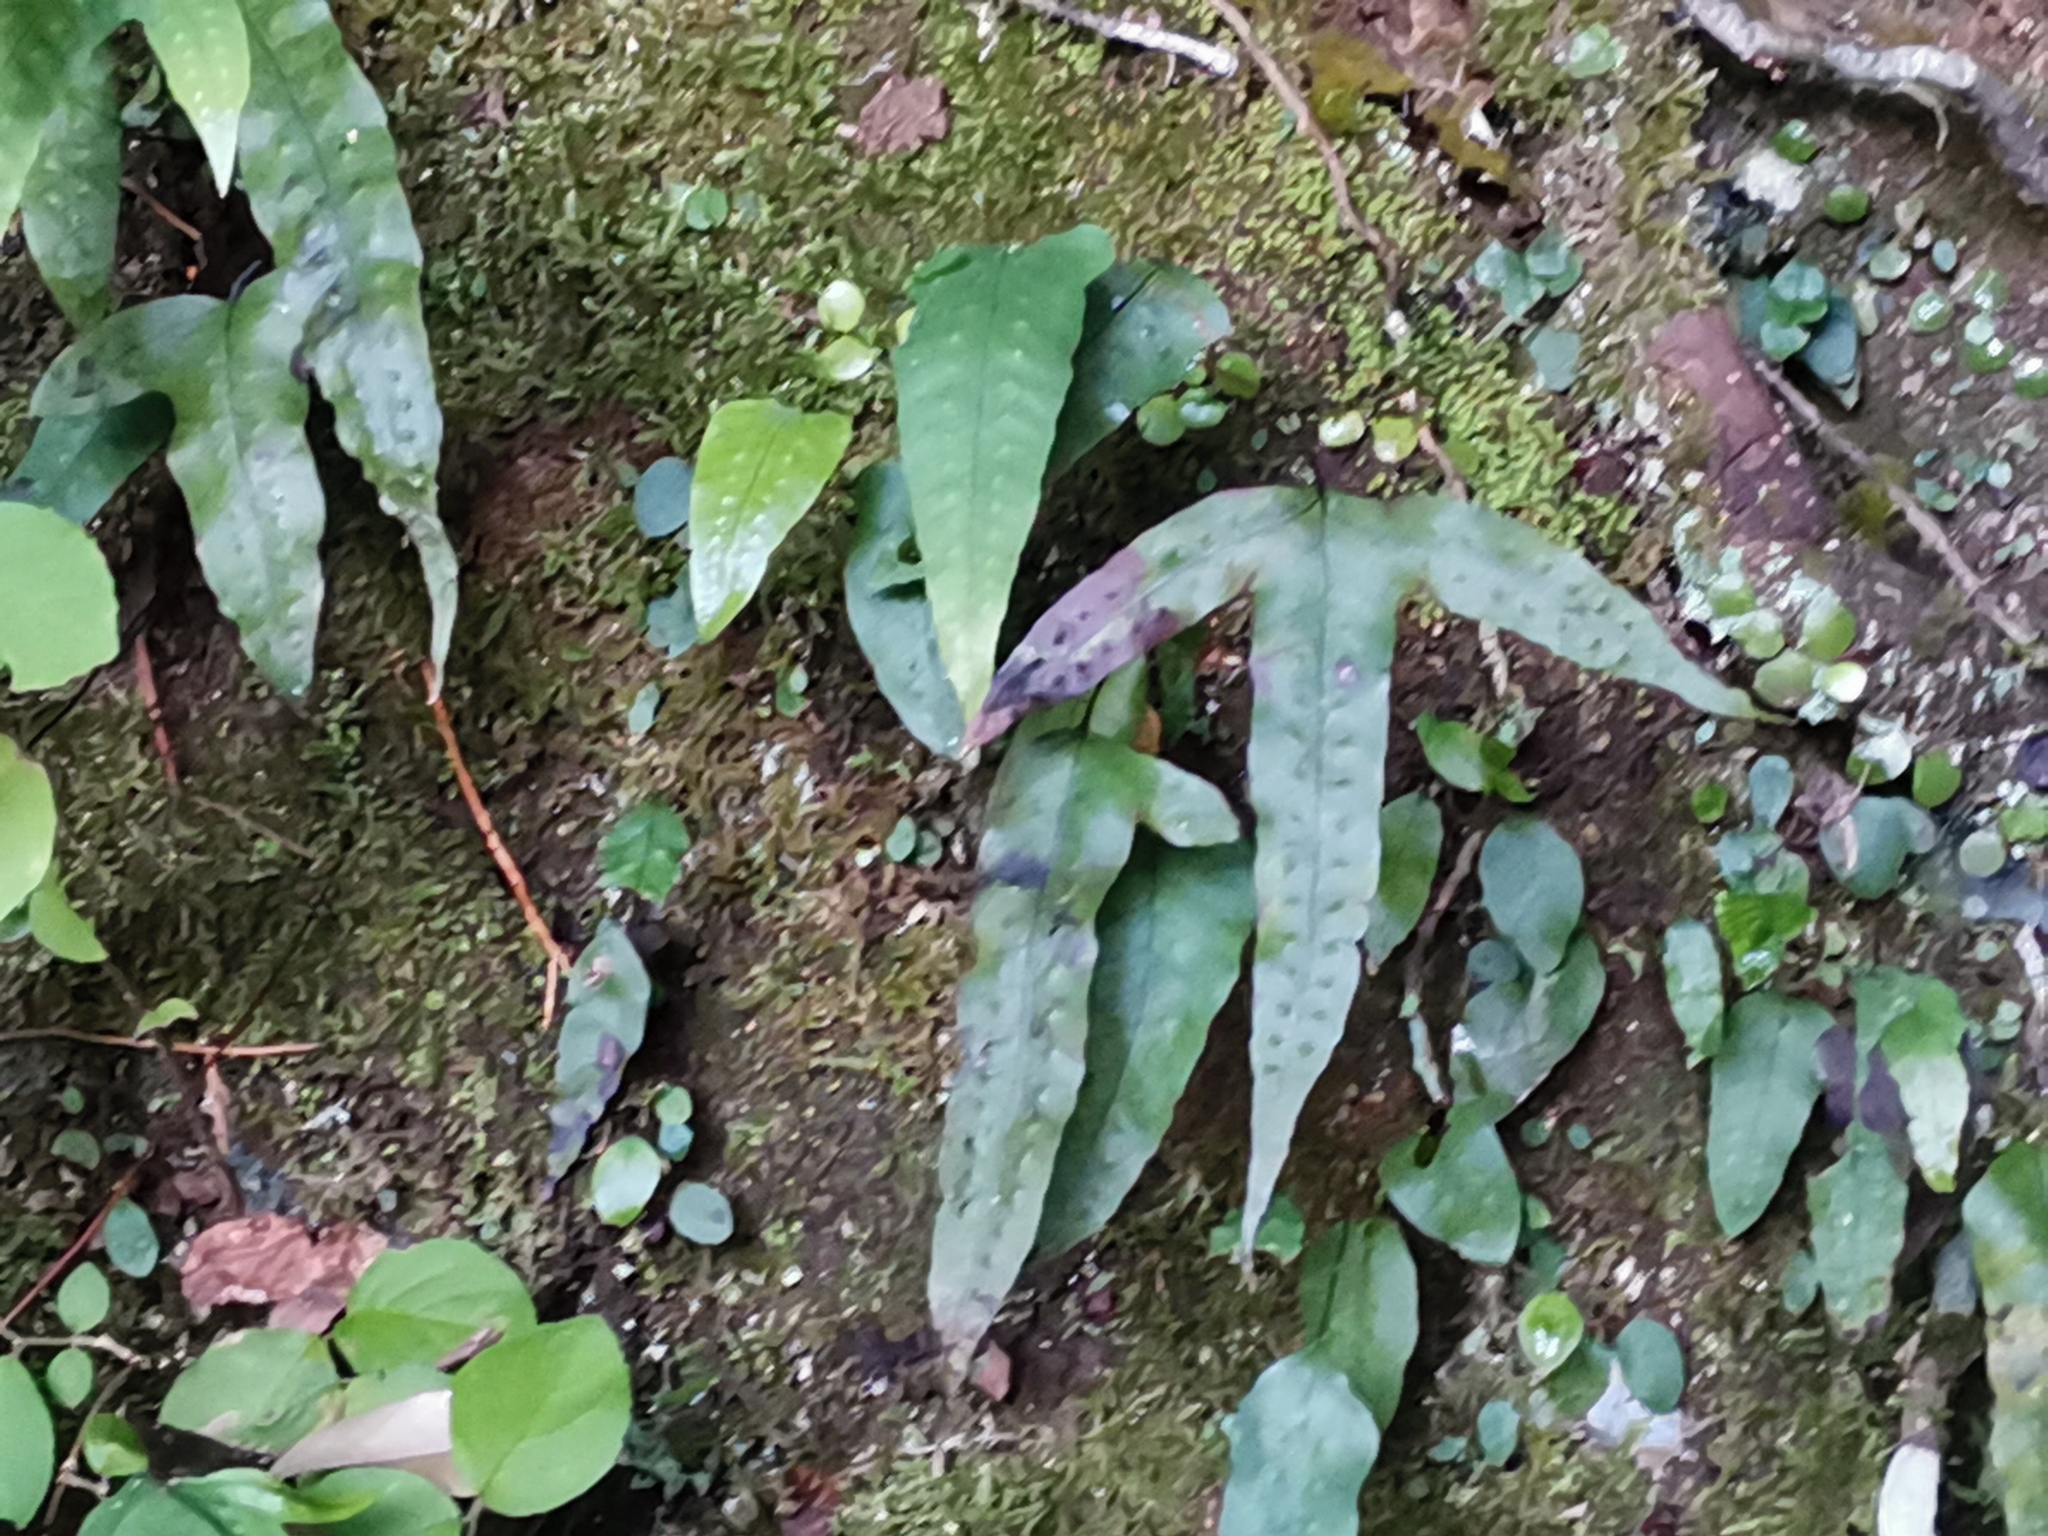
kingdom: Plantae
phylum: Tracheophyta
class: Polypodiopsida
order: Polypodiales
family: Polypodiaceae
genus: Selliguea
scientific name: Selliguea hastata
